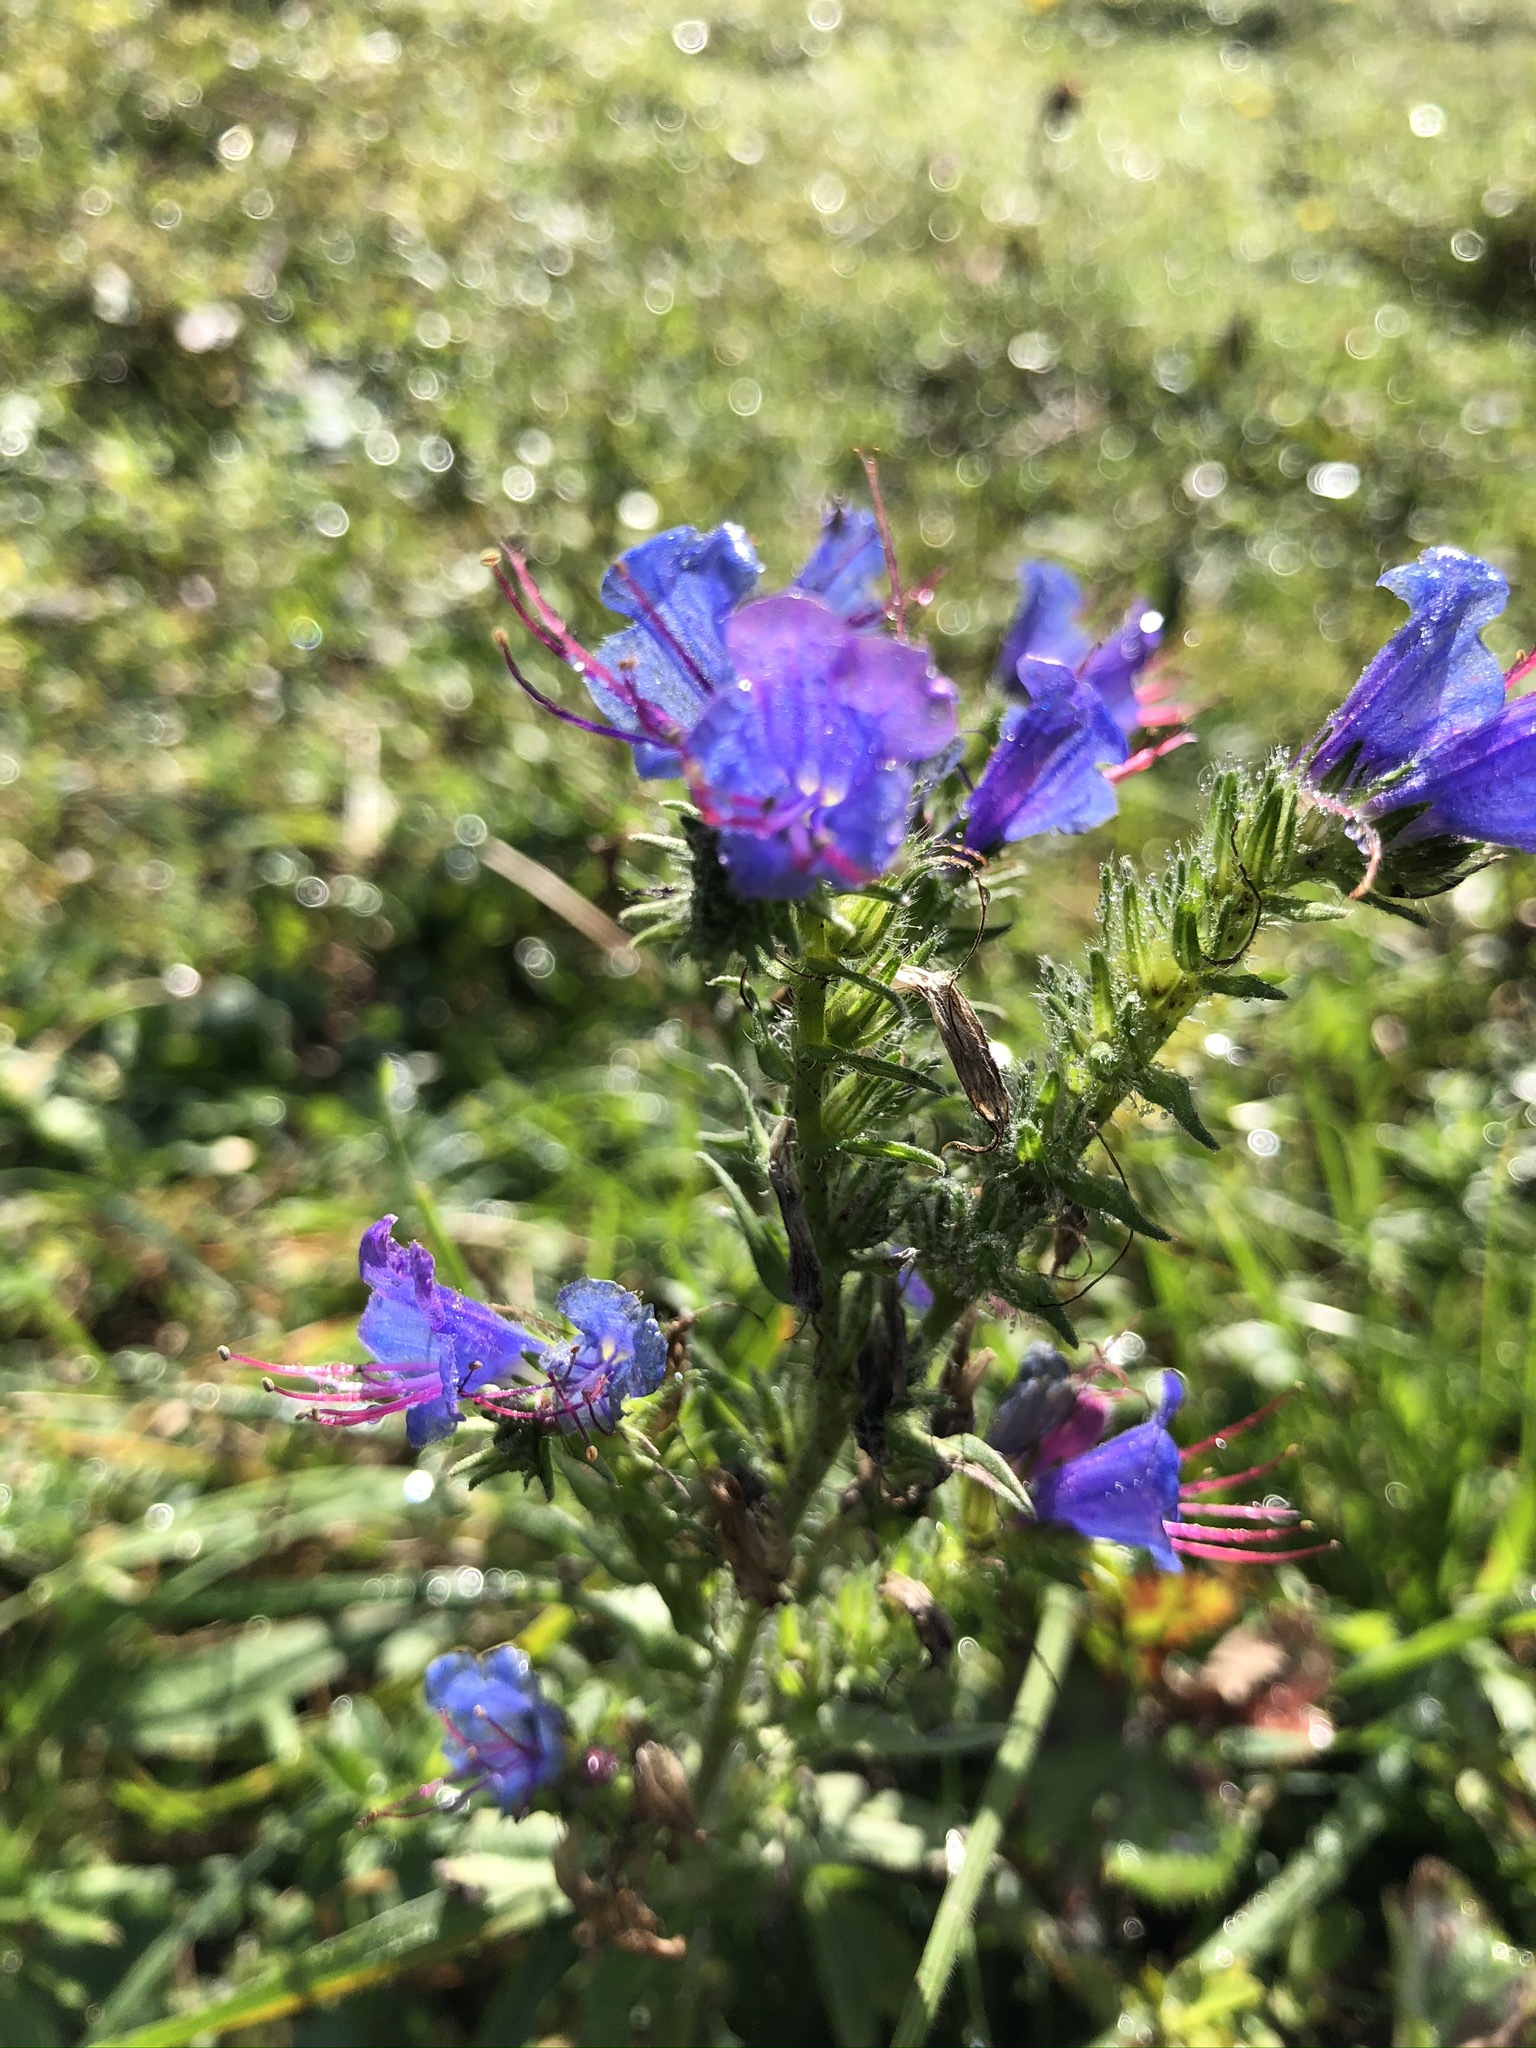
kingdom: Plantae
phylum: Tracheophyta
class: Magnoliopsida
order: Boraginales
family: Boraginaceae
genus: Echium
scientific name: Echium vulgare
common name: Common viper's bugloss
